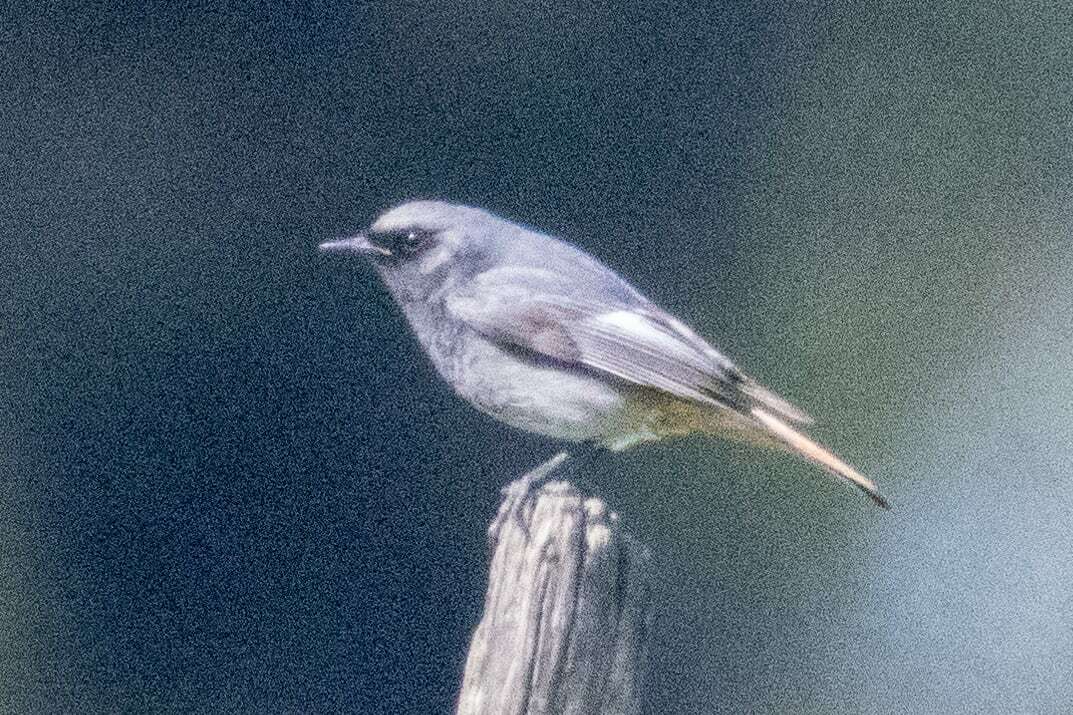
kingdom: Animalia
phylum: Chordata
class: Aves
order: Passeriformes
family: Muscicapidae
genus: Phoenicurus
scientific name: Phoenicurus ochruros
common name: Black redstart
